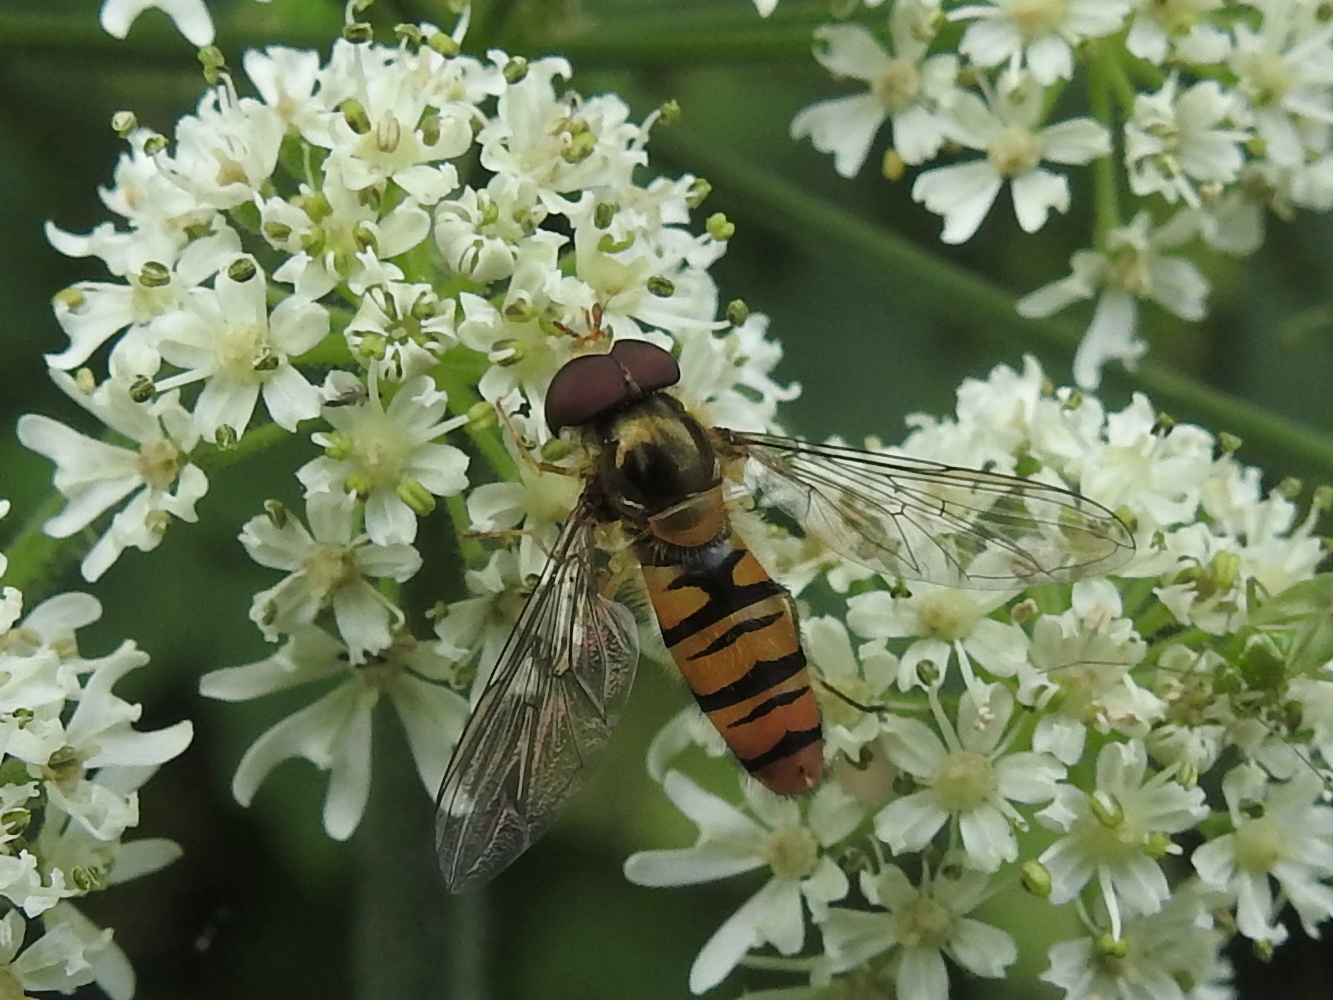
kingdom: Animalia
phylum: Arthropoda
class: Insecta
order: Diptera
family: Syrphidae
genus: Episyrphus
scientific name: Episyrphus balteatus
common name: Marmalade hoverfly
